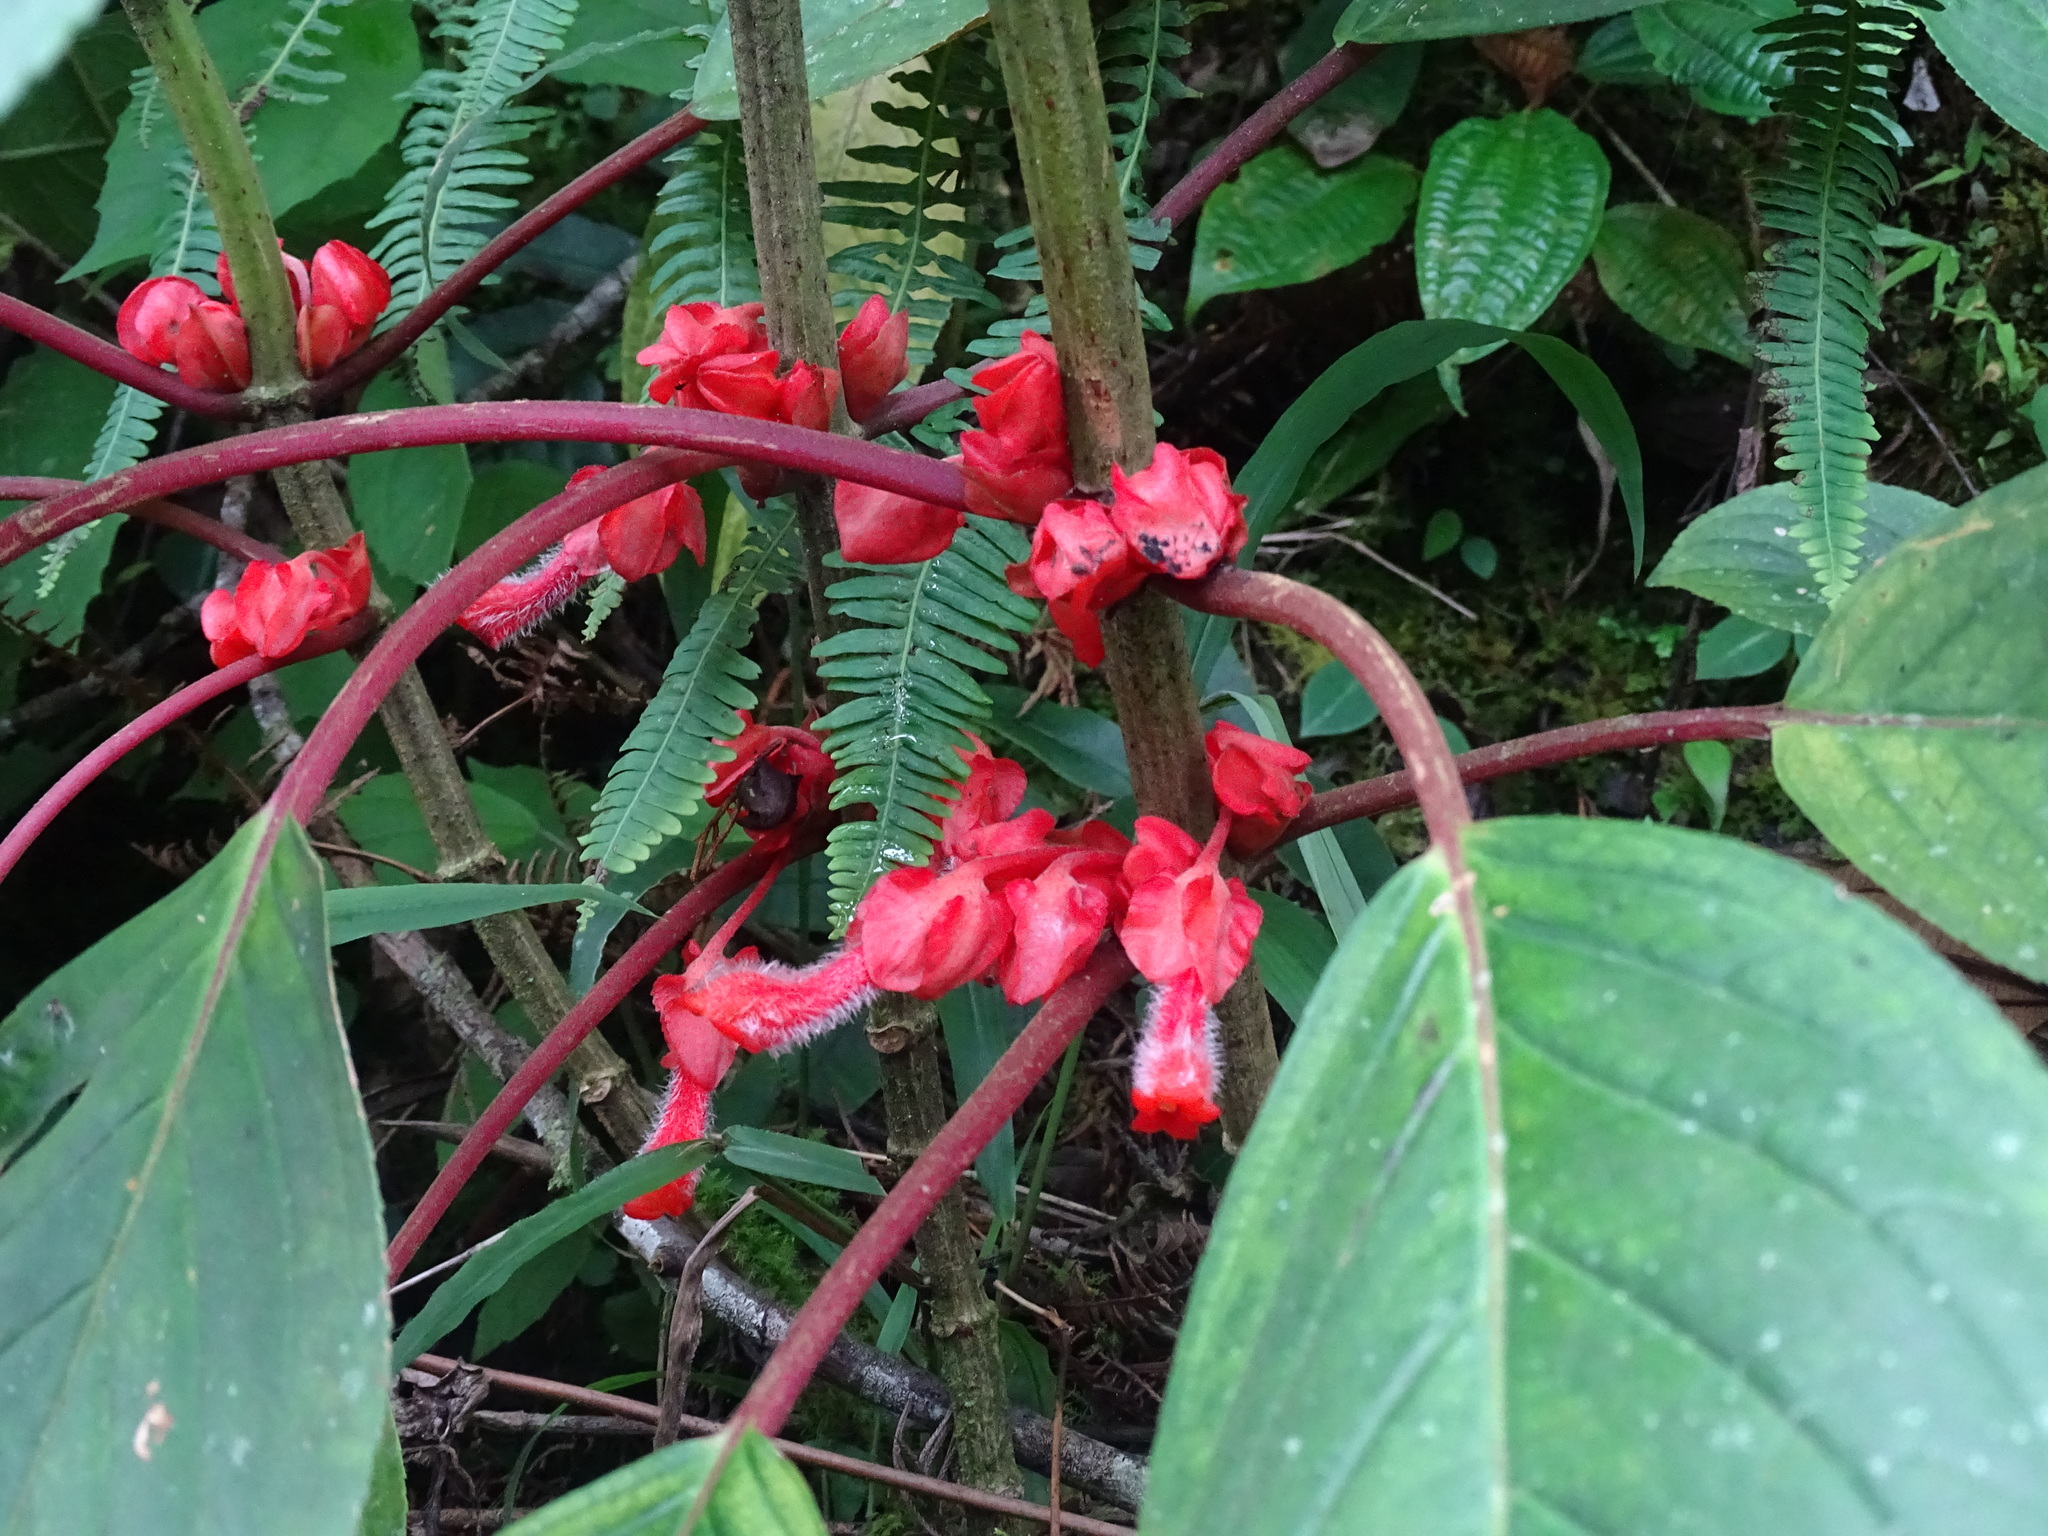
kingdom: Plantae
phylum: Tracheophyta
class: Magnoliopsida
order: Lamiales
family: Gesneriaceae
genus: Glossoloma
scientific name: Glossoloma schultzei
